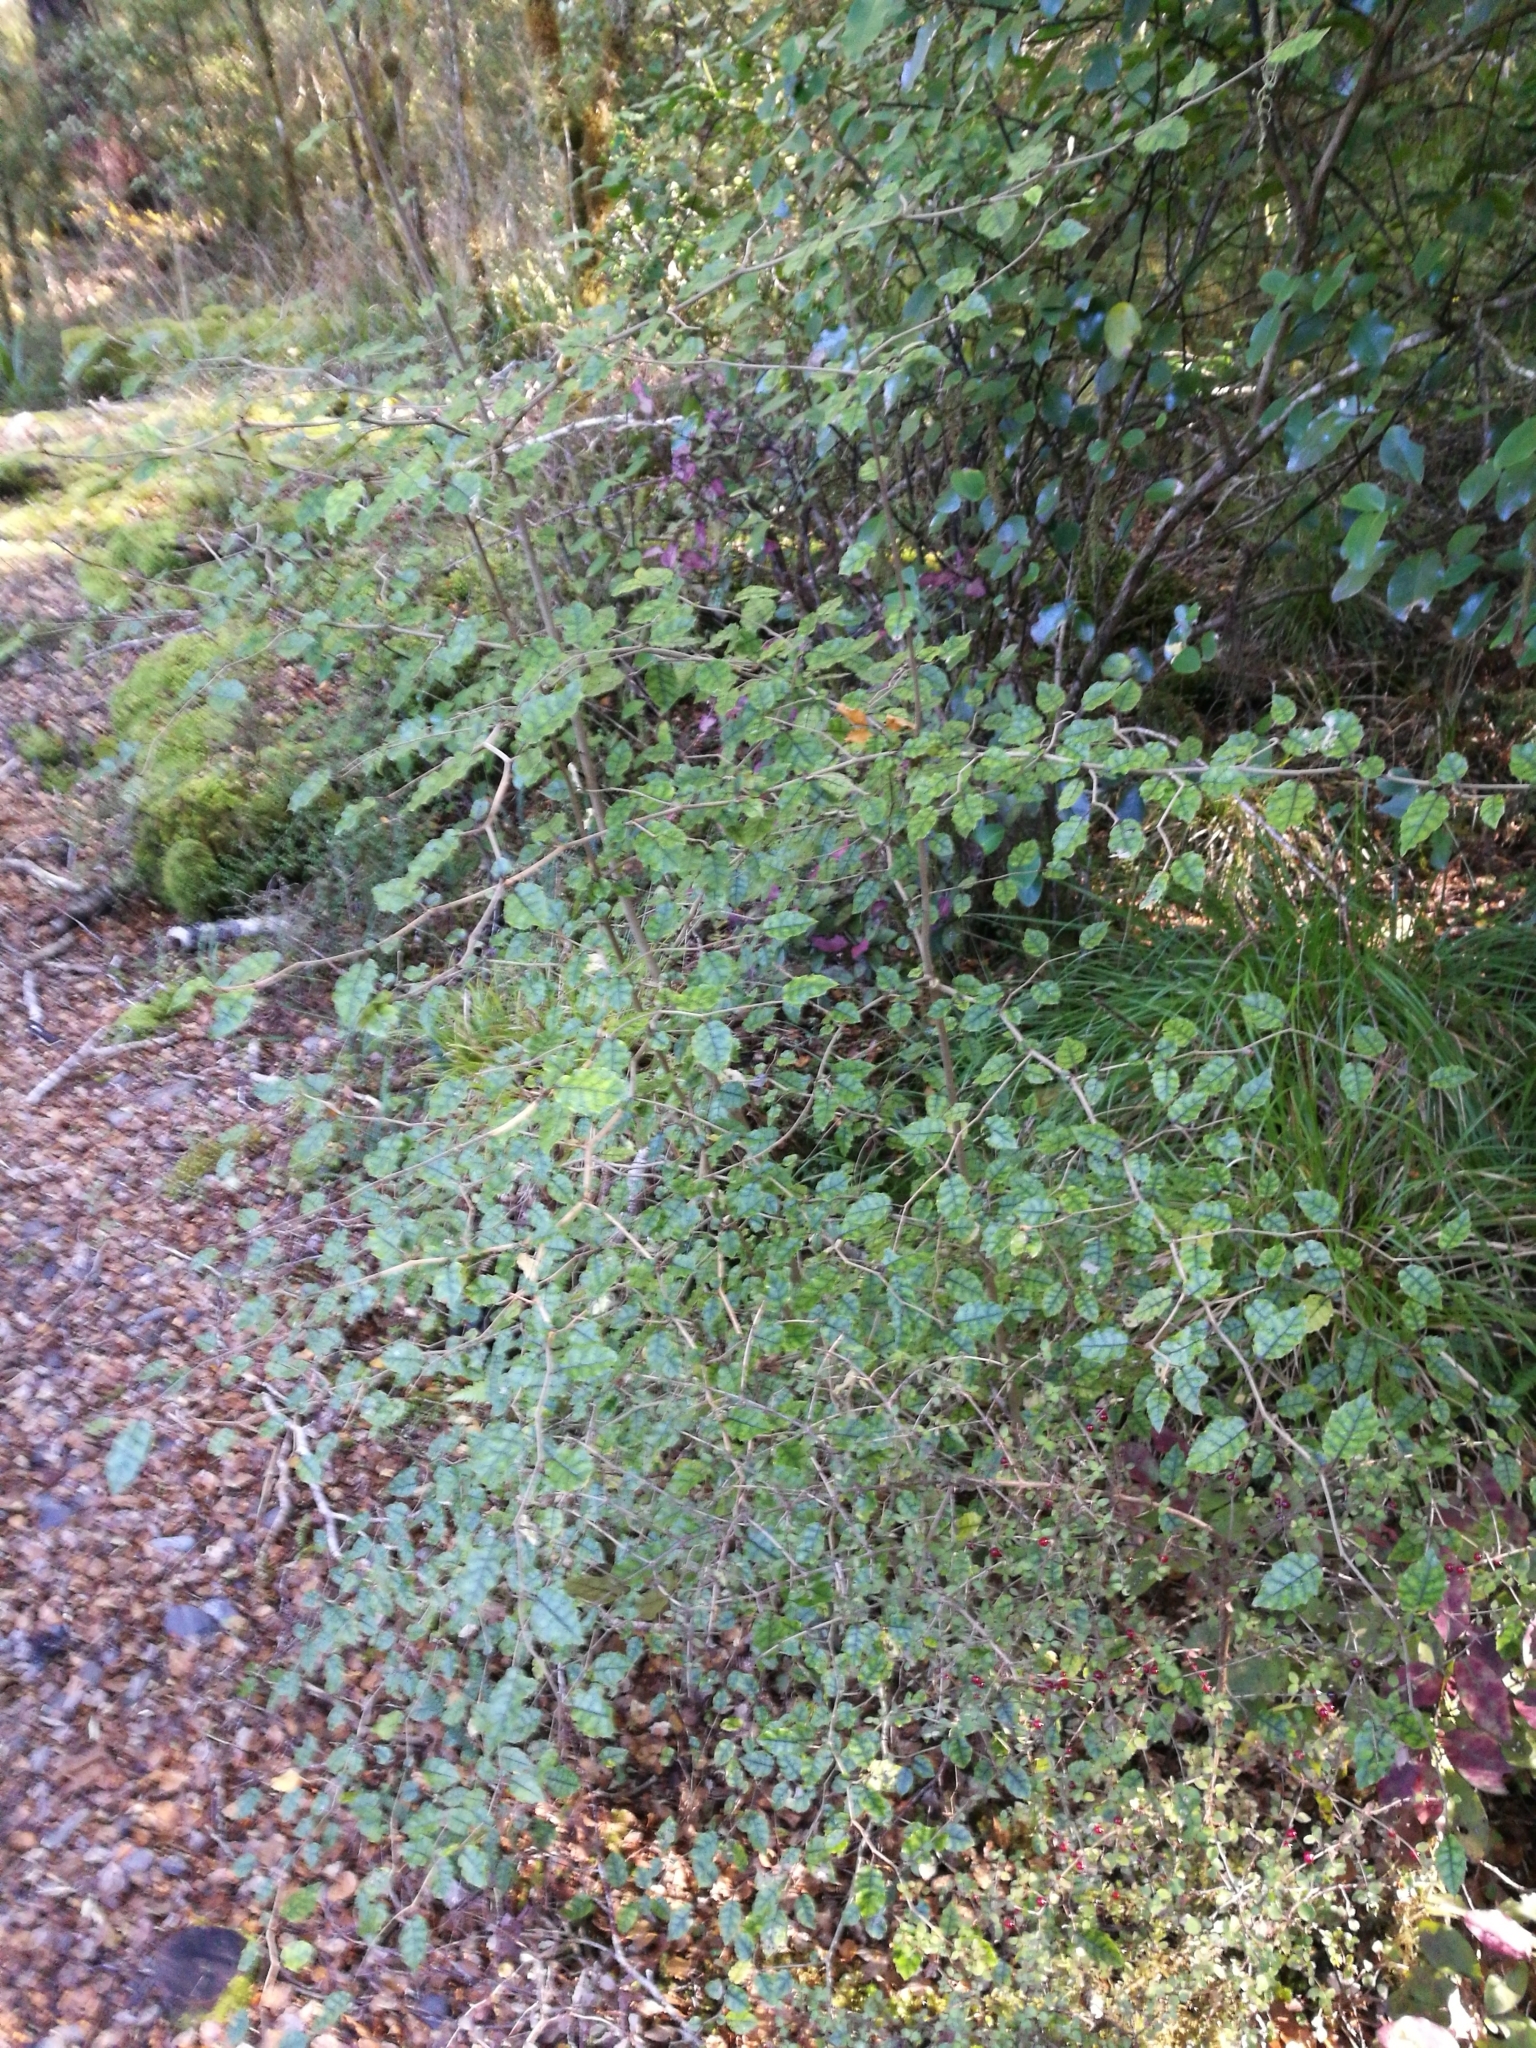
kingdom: Plantae
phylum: Tracheophyta
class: Magnoliopsida
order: Asterales
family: Rousseaceae
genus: Carpodetus
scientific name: Carpodetus serratus
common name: White mapau
